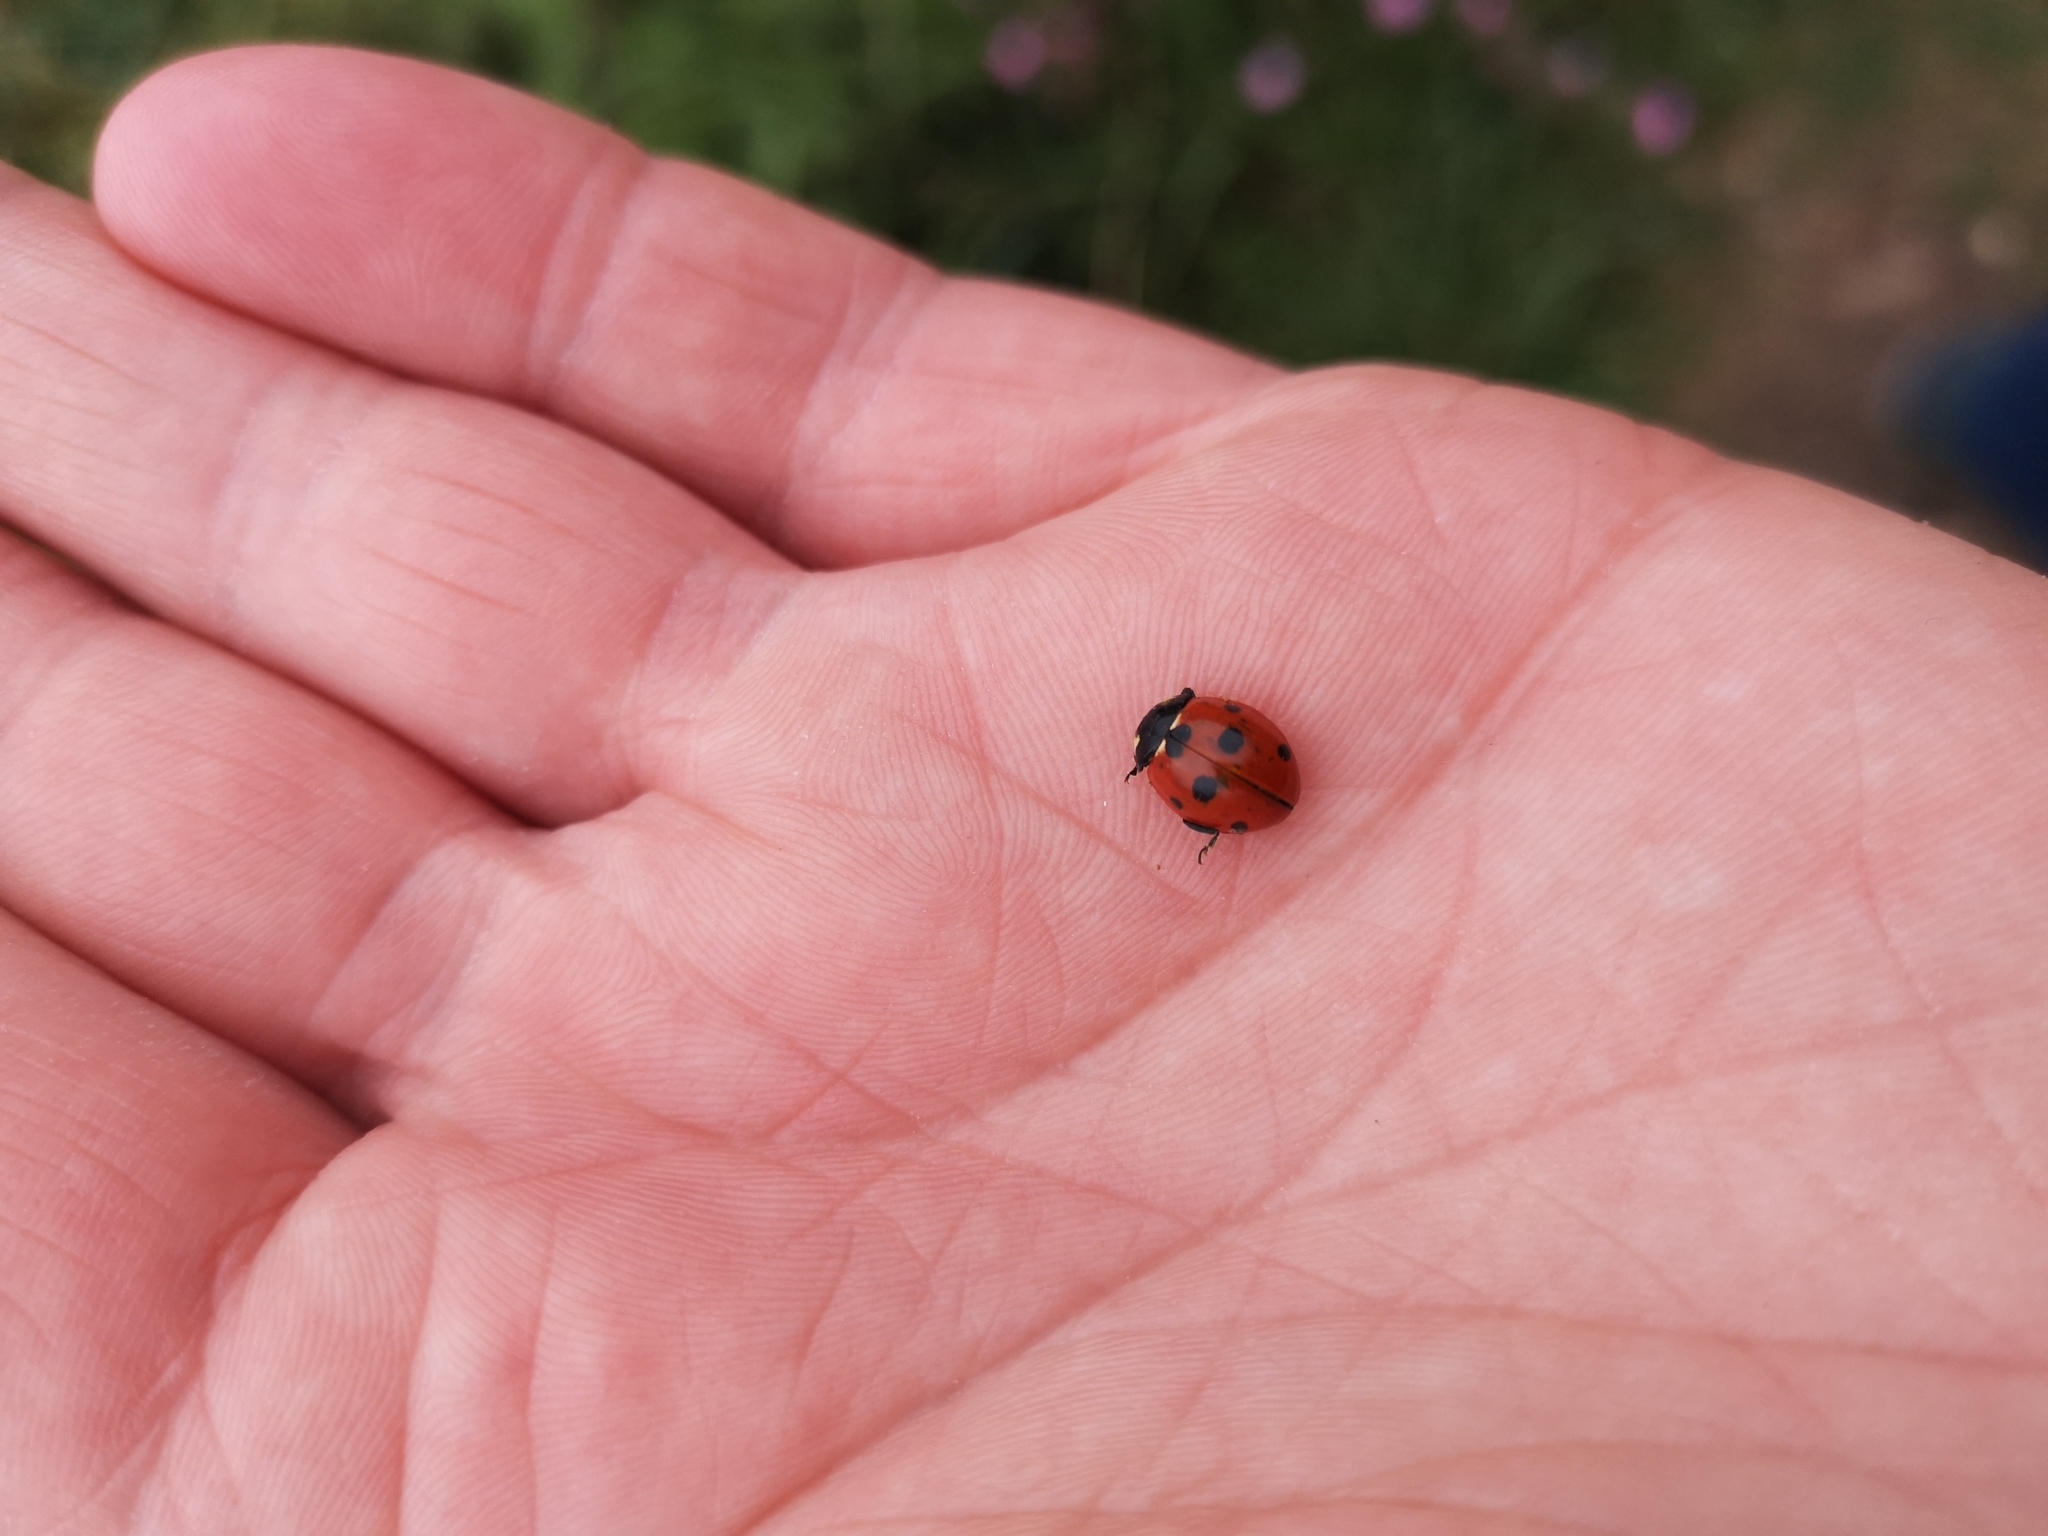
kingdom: Animalia
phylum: Arthropoda
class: Insecta
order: Coleoptera
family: Coccinellidae
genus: Coccinella
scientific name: Coccinella septempunctata
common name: Sevenspotted lady beetle
